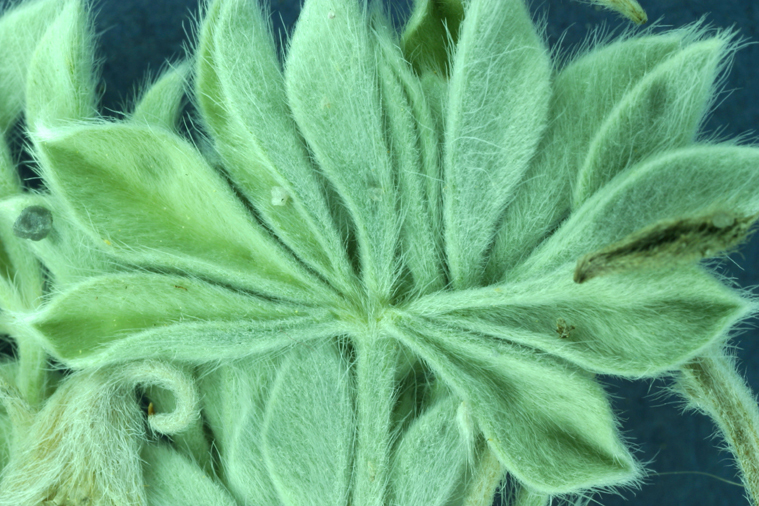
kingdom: Plantae
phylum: Tracheophyta
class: Magnoliopsida
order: Fabales
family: Fabaceae
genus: Lupinus
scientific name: Lupinus duranii
